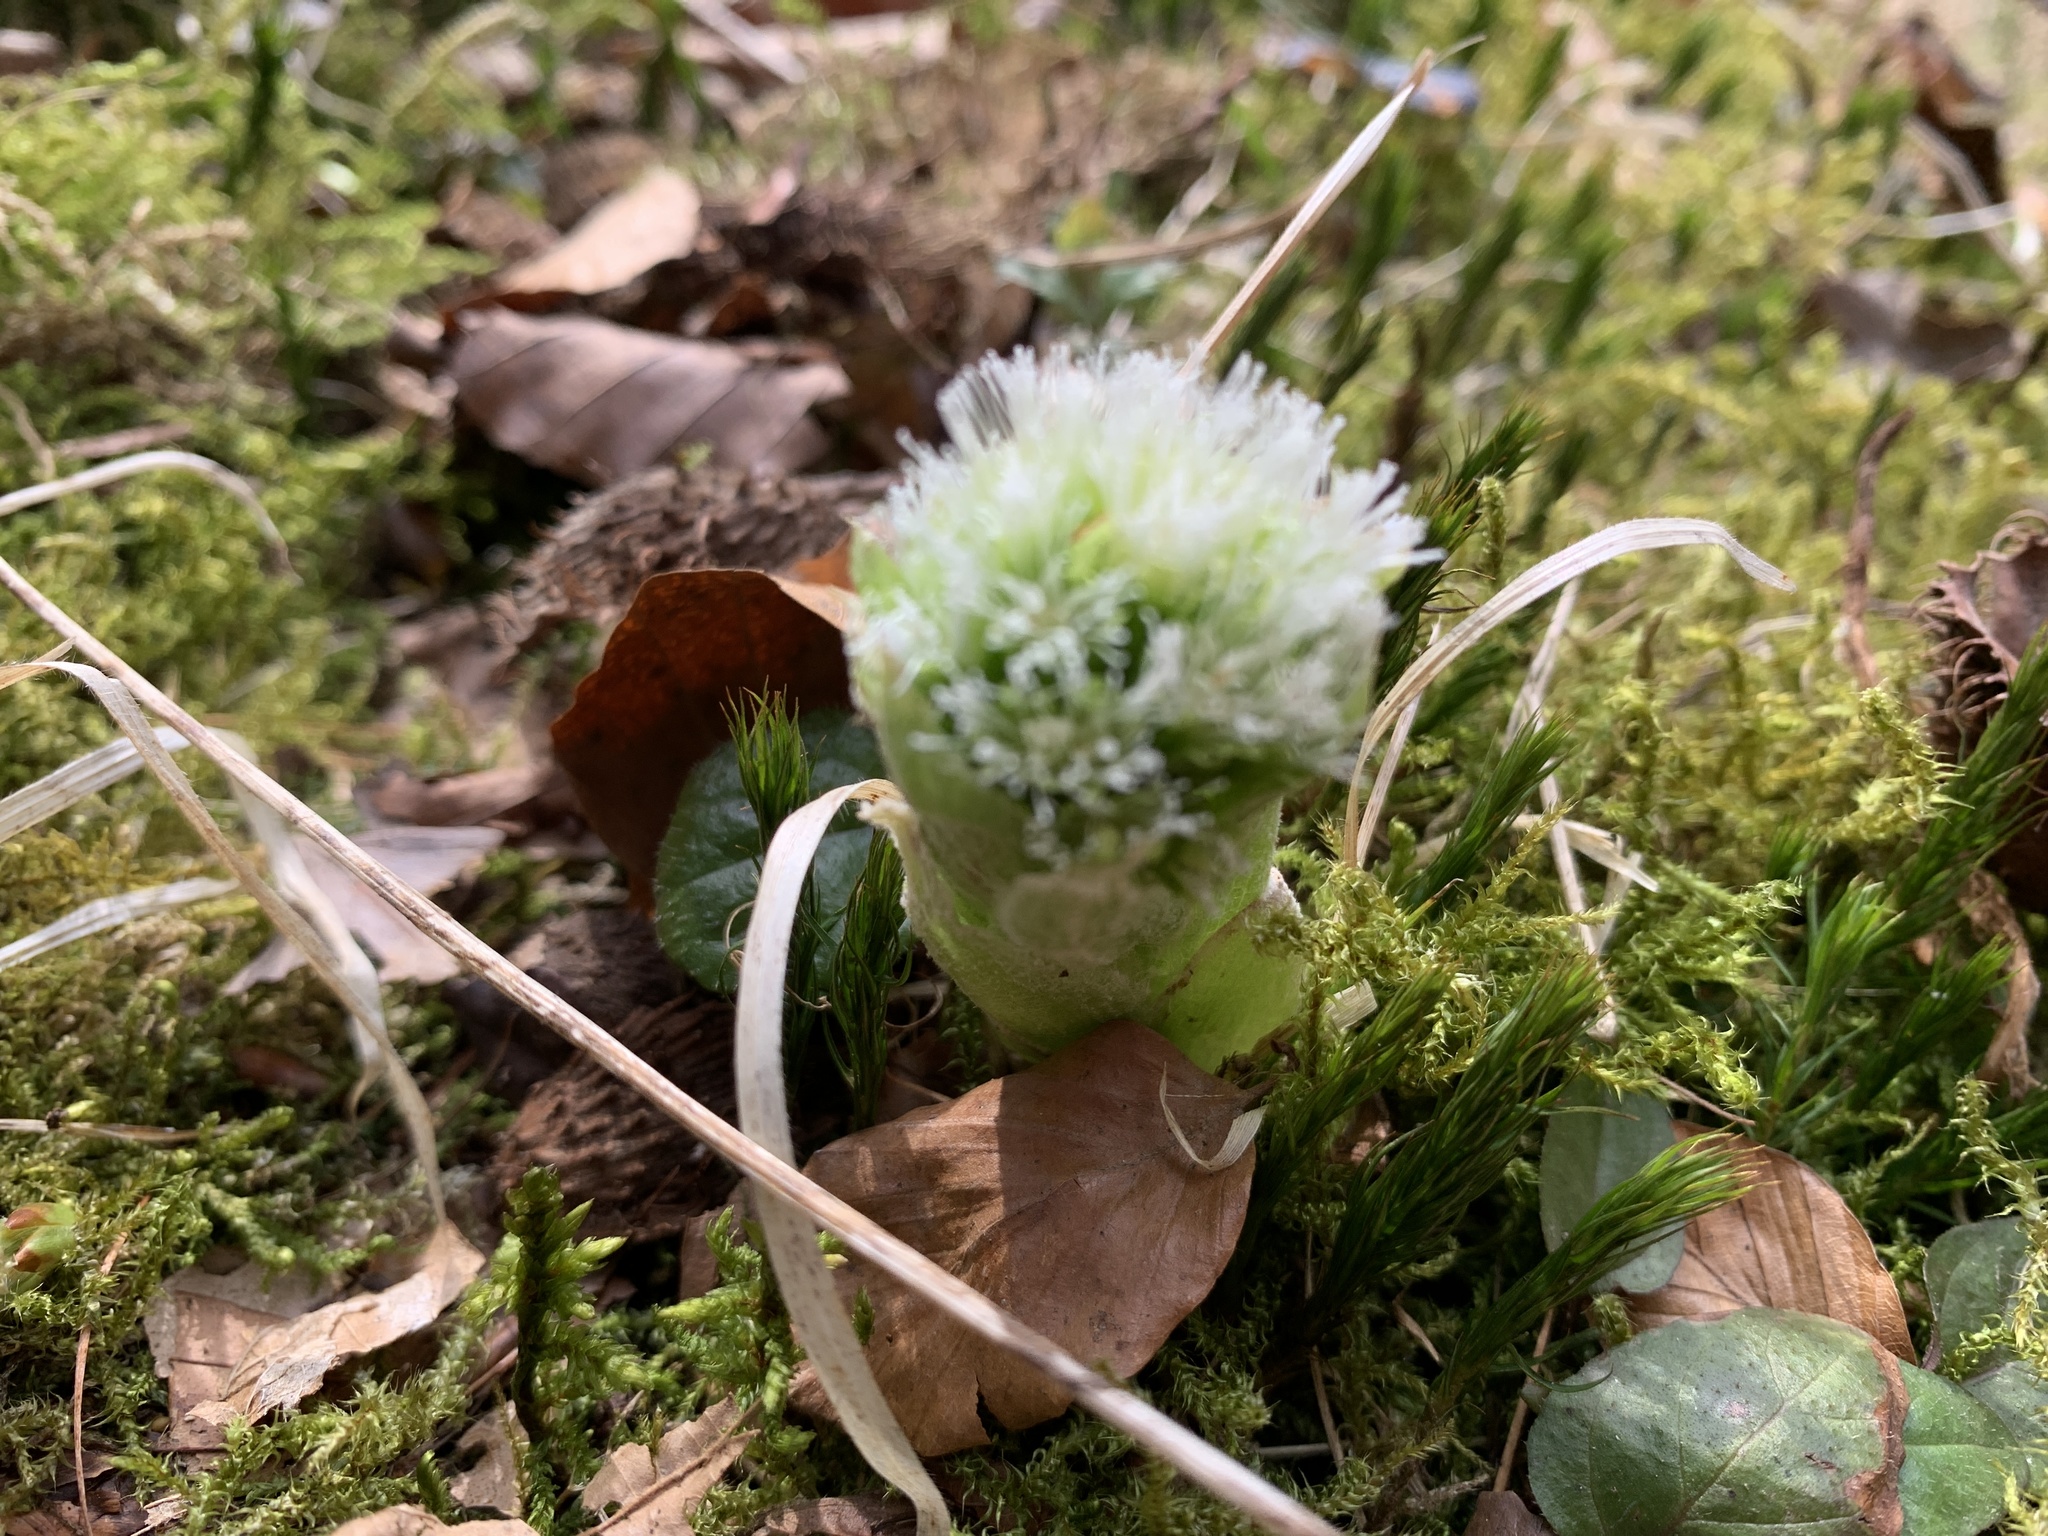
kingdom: Plantae
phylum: Tracheophyta
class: Magnoliopsida
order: Asterales
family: Asteraceae
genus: Petasites
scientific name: Petasites albus
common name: White butterbur
